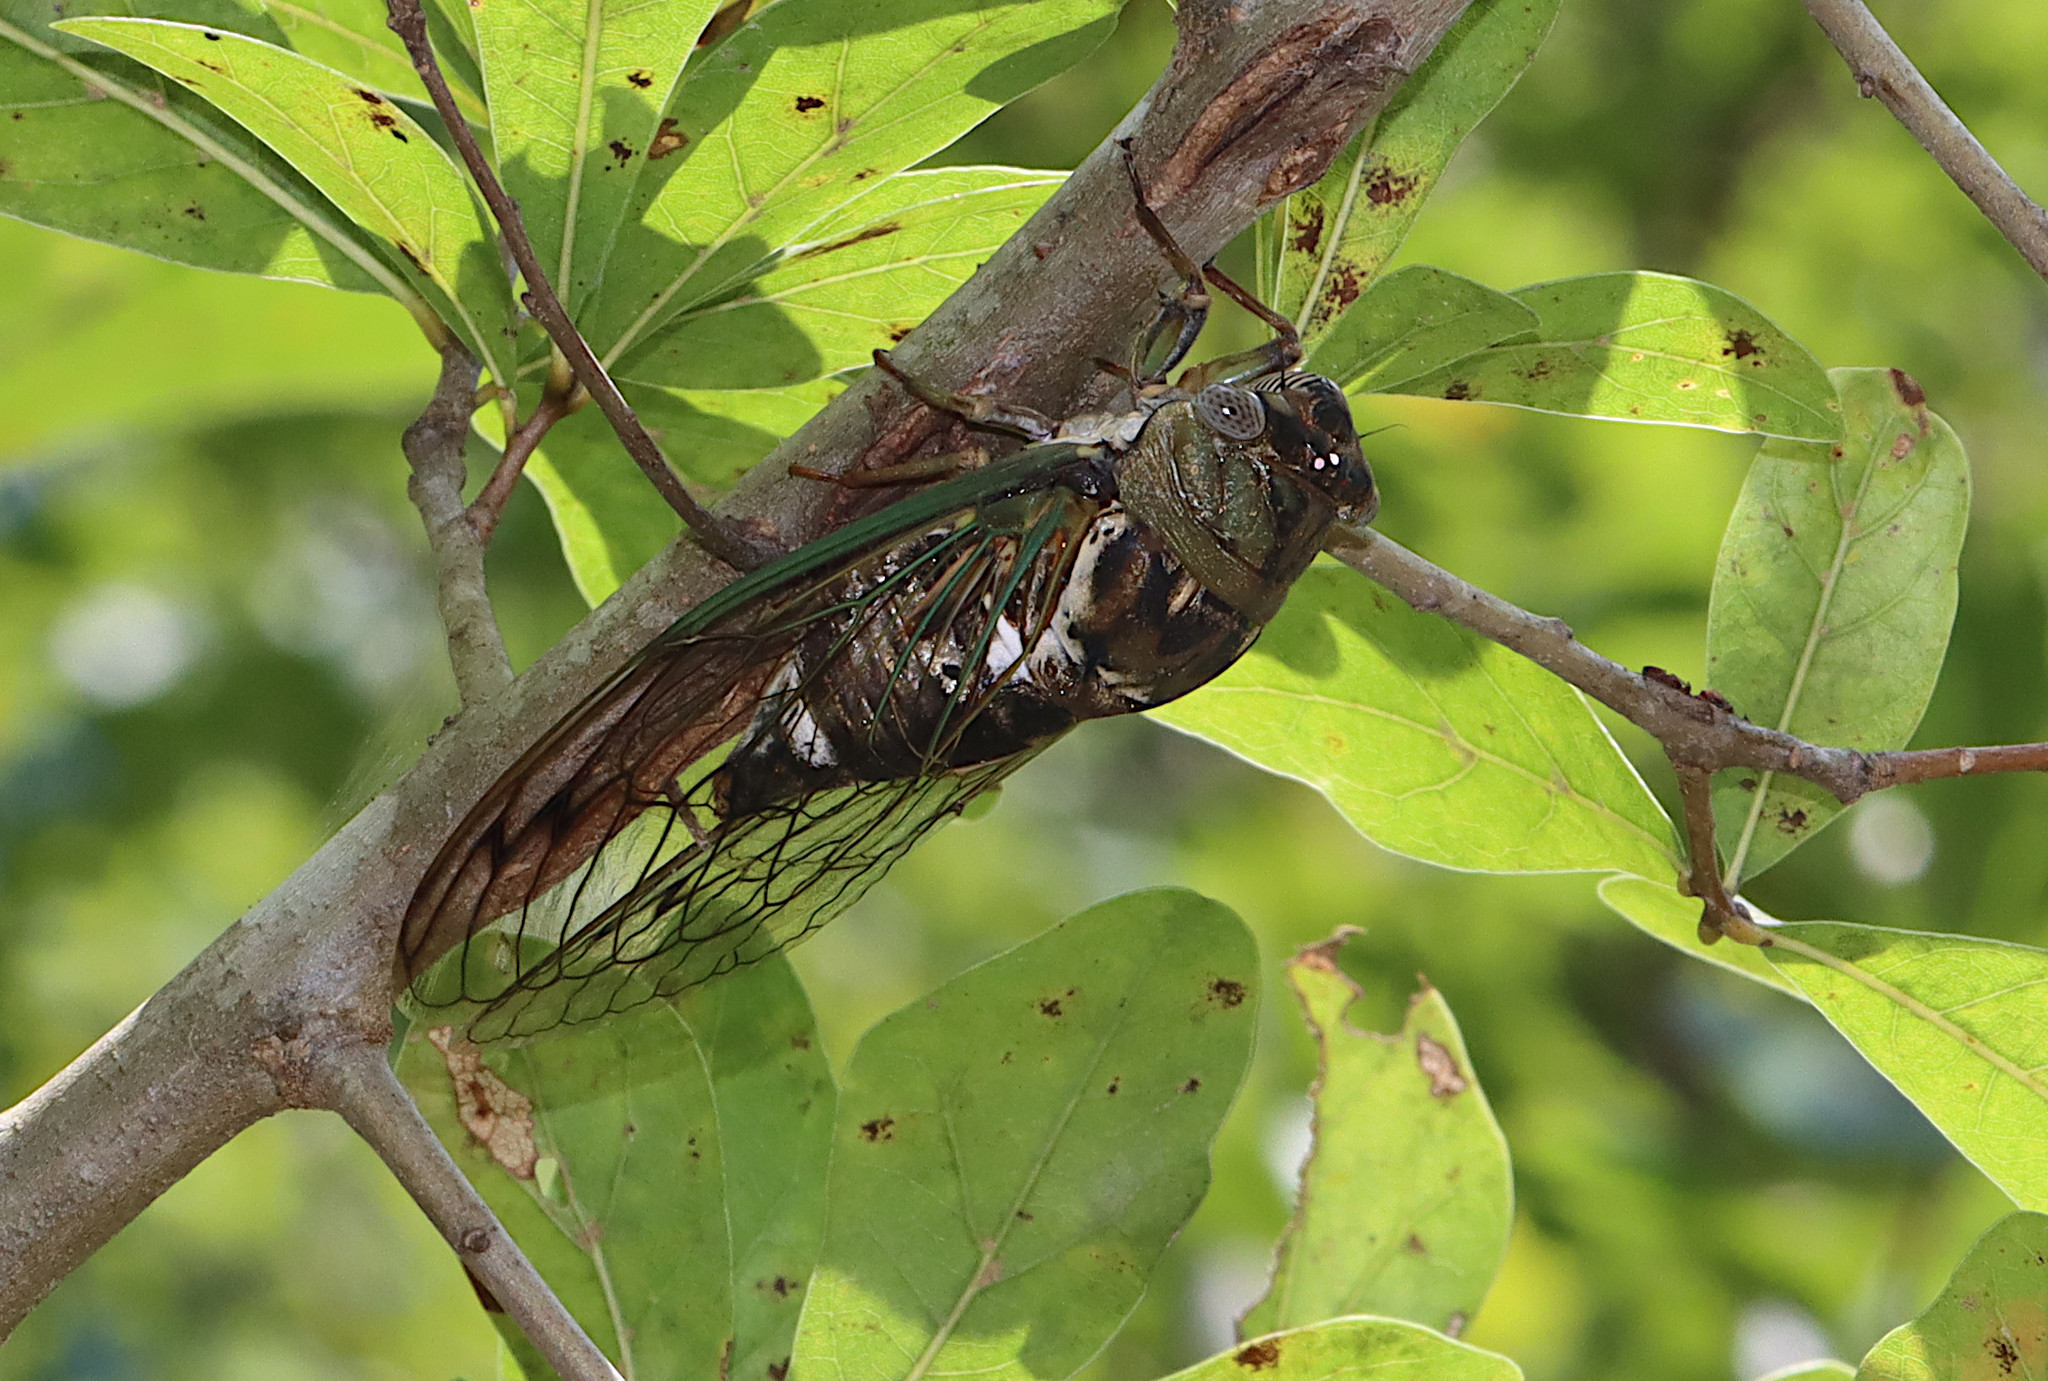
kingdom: Animalia
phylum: Arthropoda
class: Insecta
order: Hemiptera
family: Cicadidae
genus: Megatibicen
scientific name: Megatibicen resh
